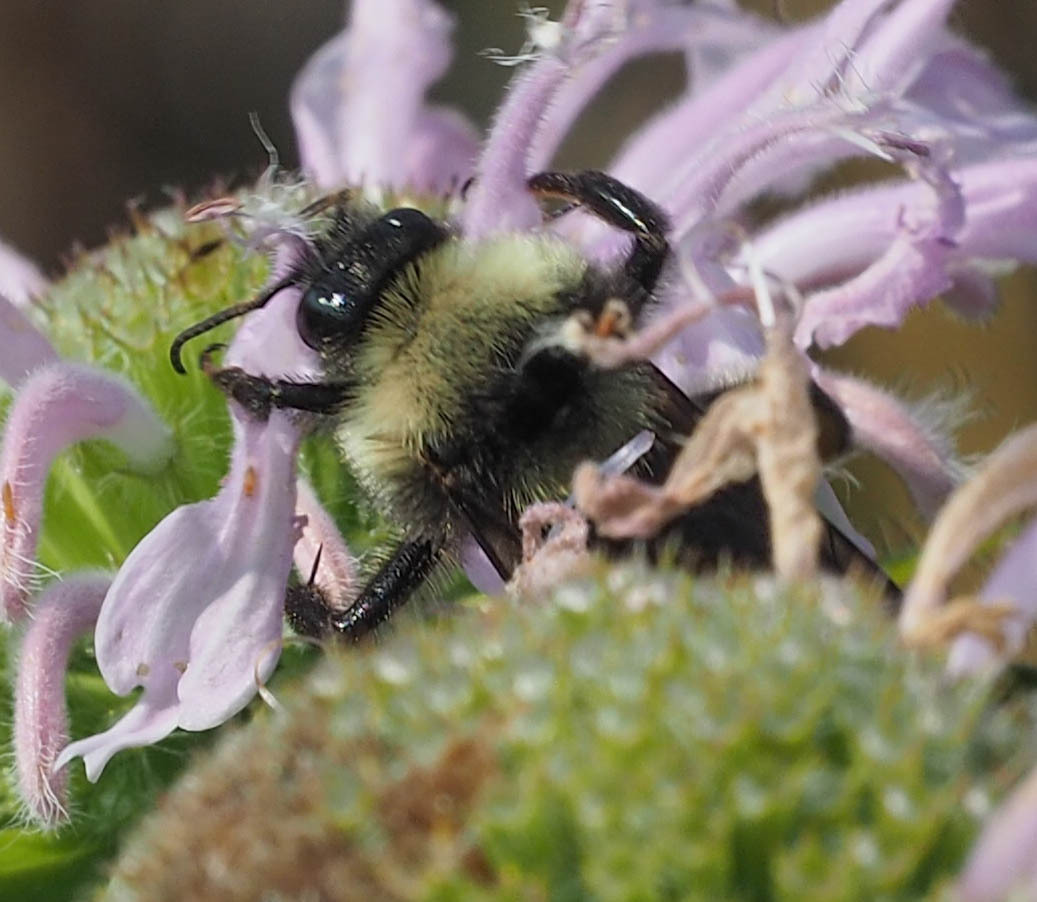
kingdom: Animalia
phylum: Arthropoda
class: Insecta
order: Hymenoptera
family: Apidae
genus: Bombus
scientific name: Bombus pensylvanicus
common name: Bumble bee
